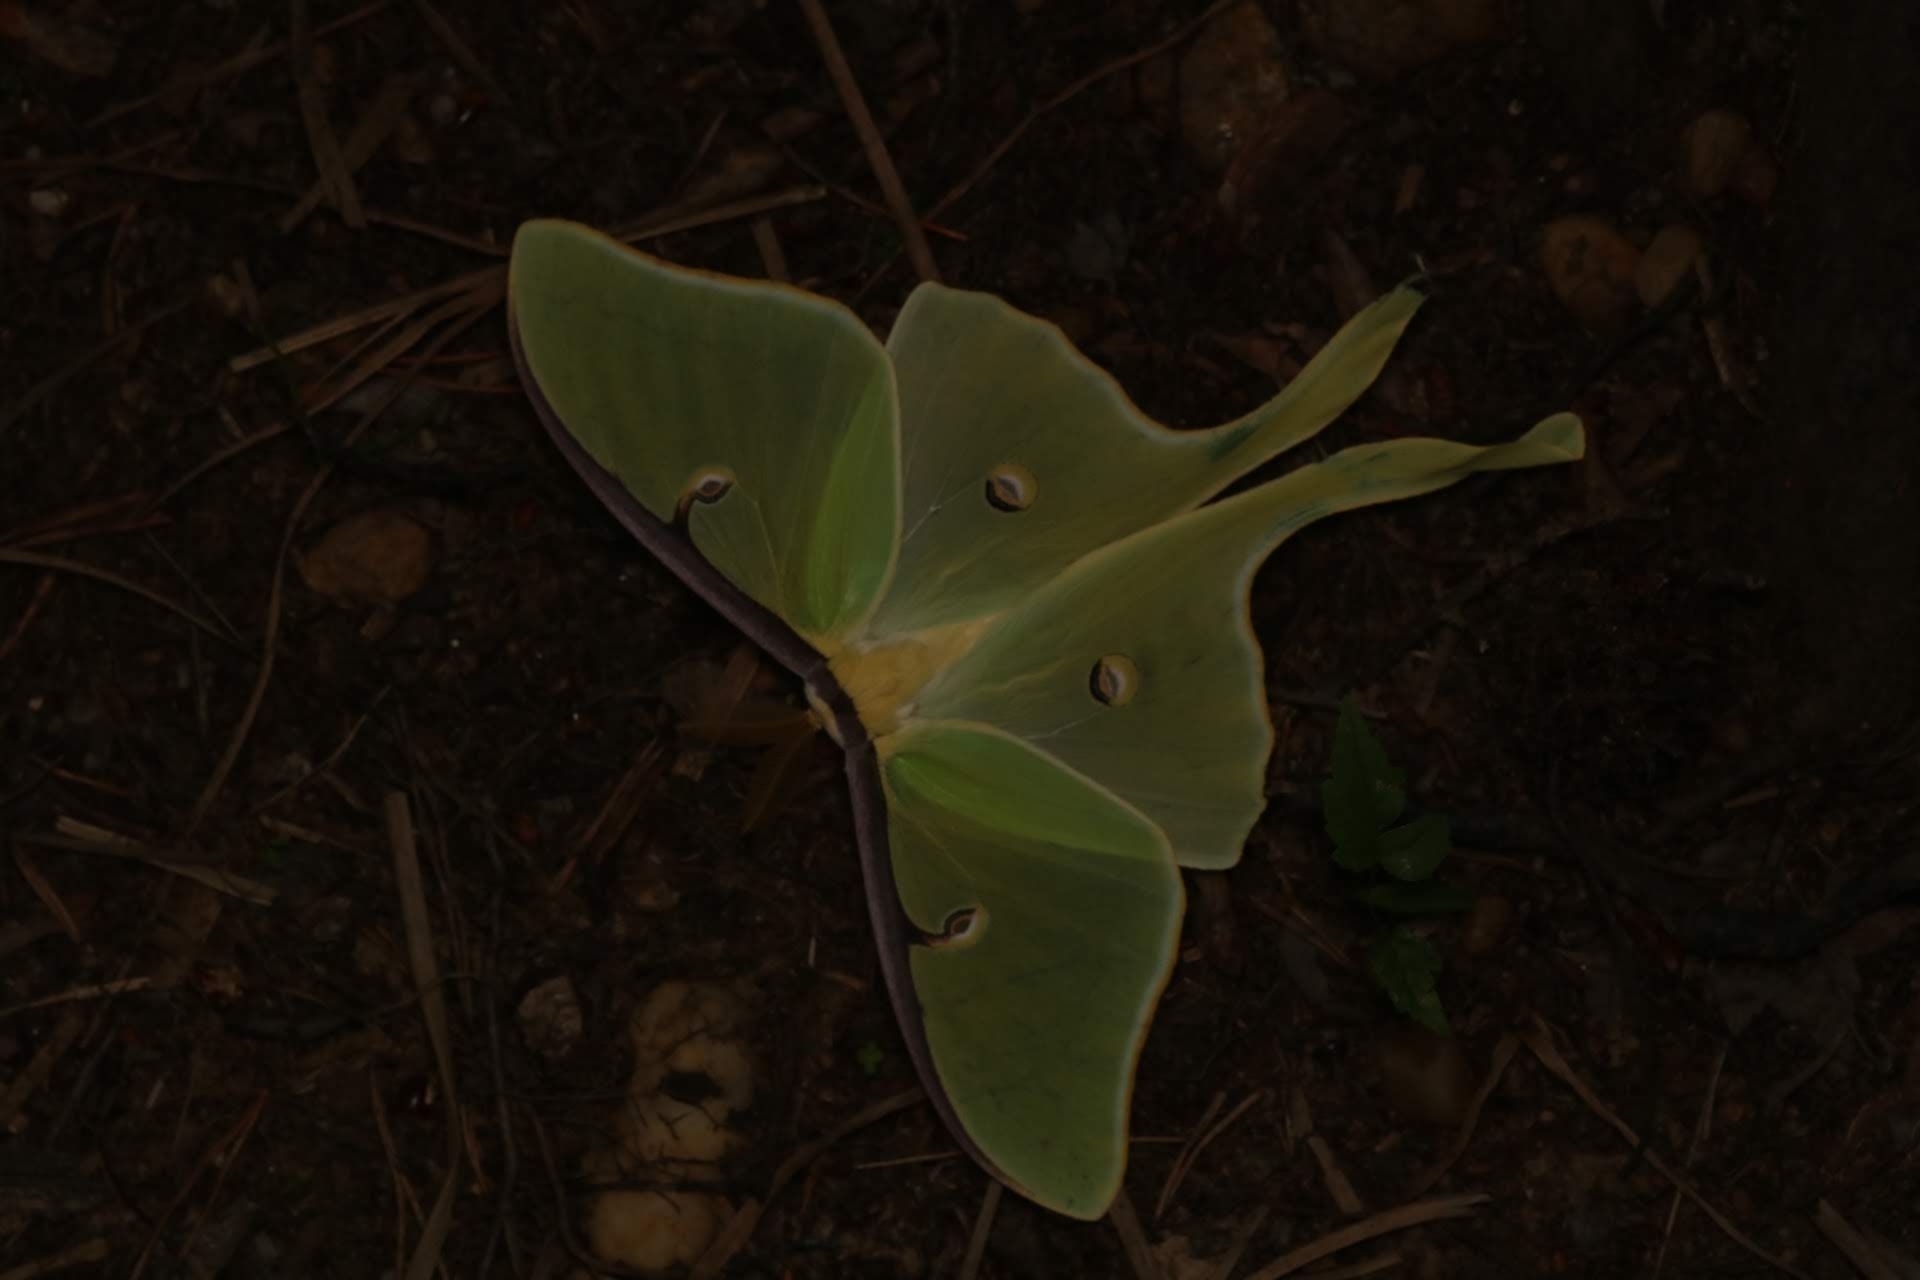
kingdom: Animalia
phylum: Arthropoda
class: Insecta
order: Lepidoptera
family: Saturniidae
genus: Actias
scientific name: Actias luna
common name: Luna moth
